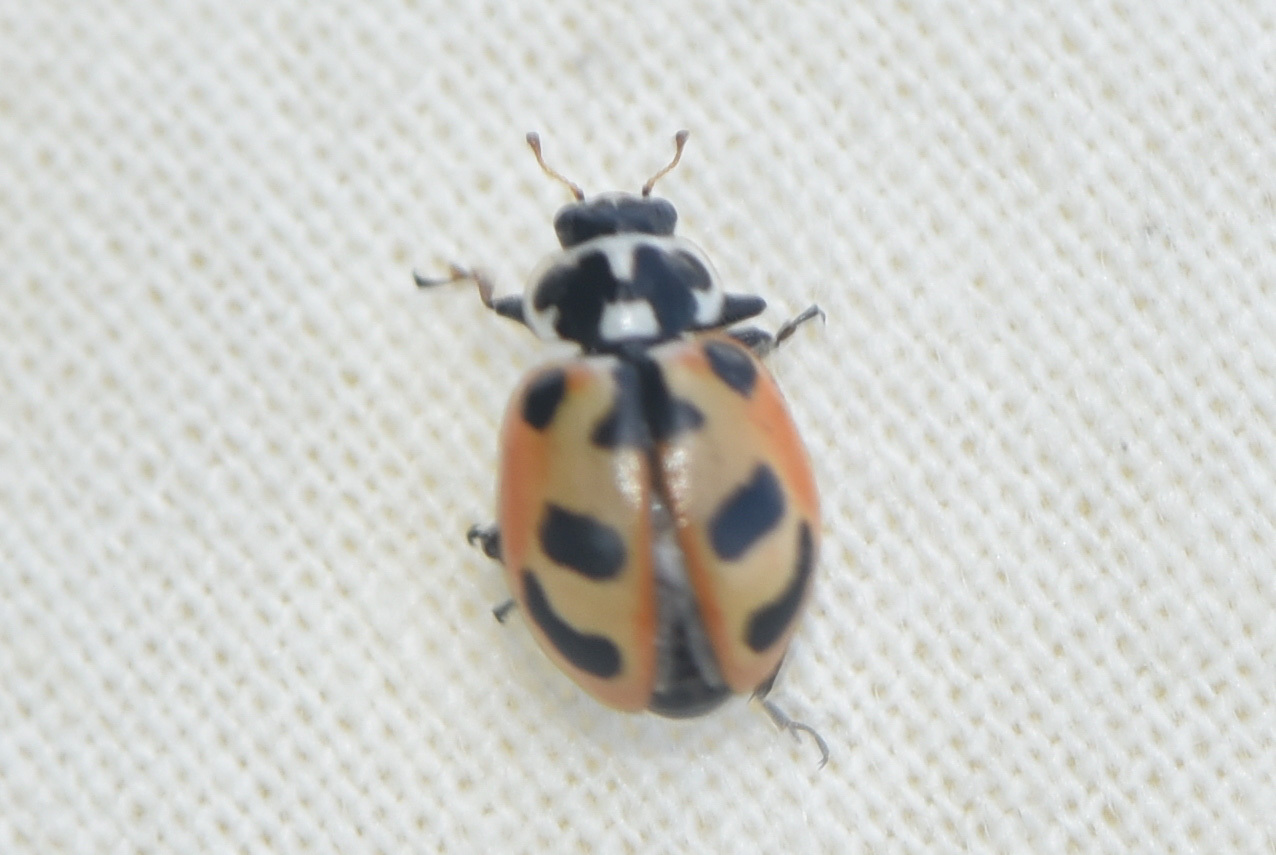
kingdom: Animalia
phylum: Arthropoda
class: Insecta
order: Coleoptera
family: Coccinellidae
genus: Hippodamia
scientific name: Hippodamia parenthesis
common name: Parenthesis lady beetle
